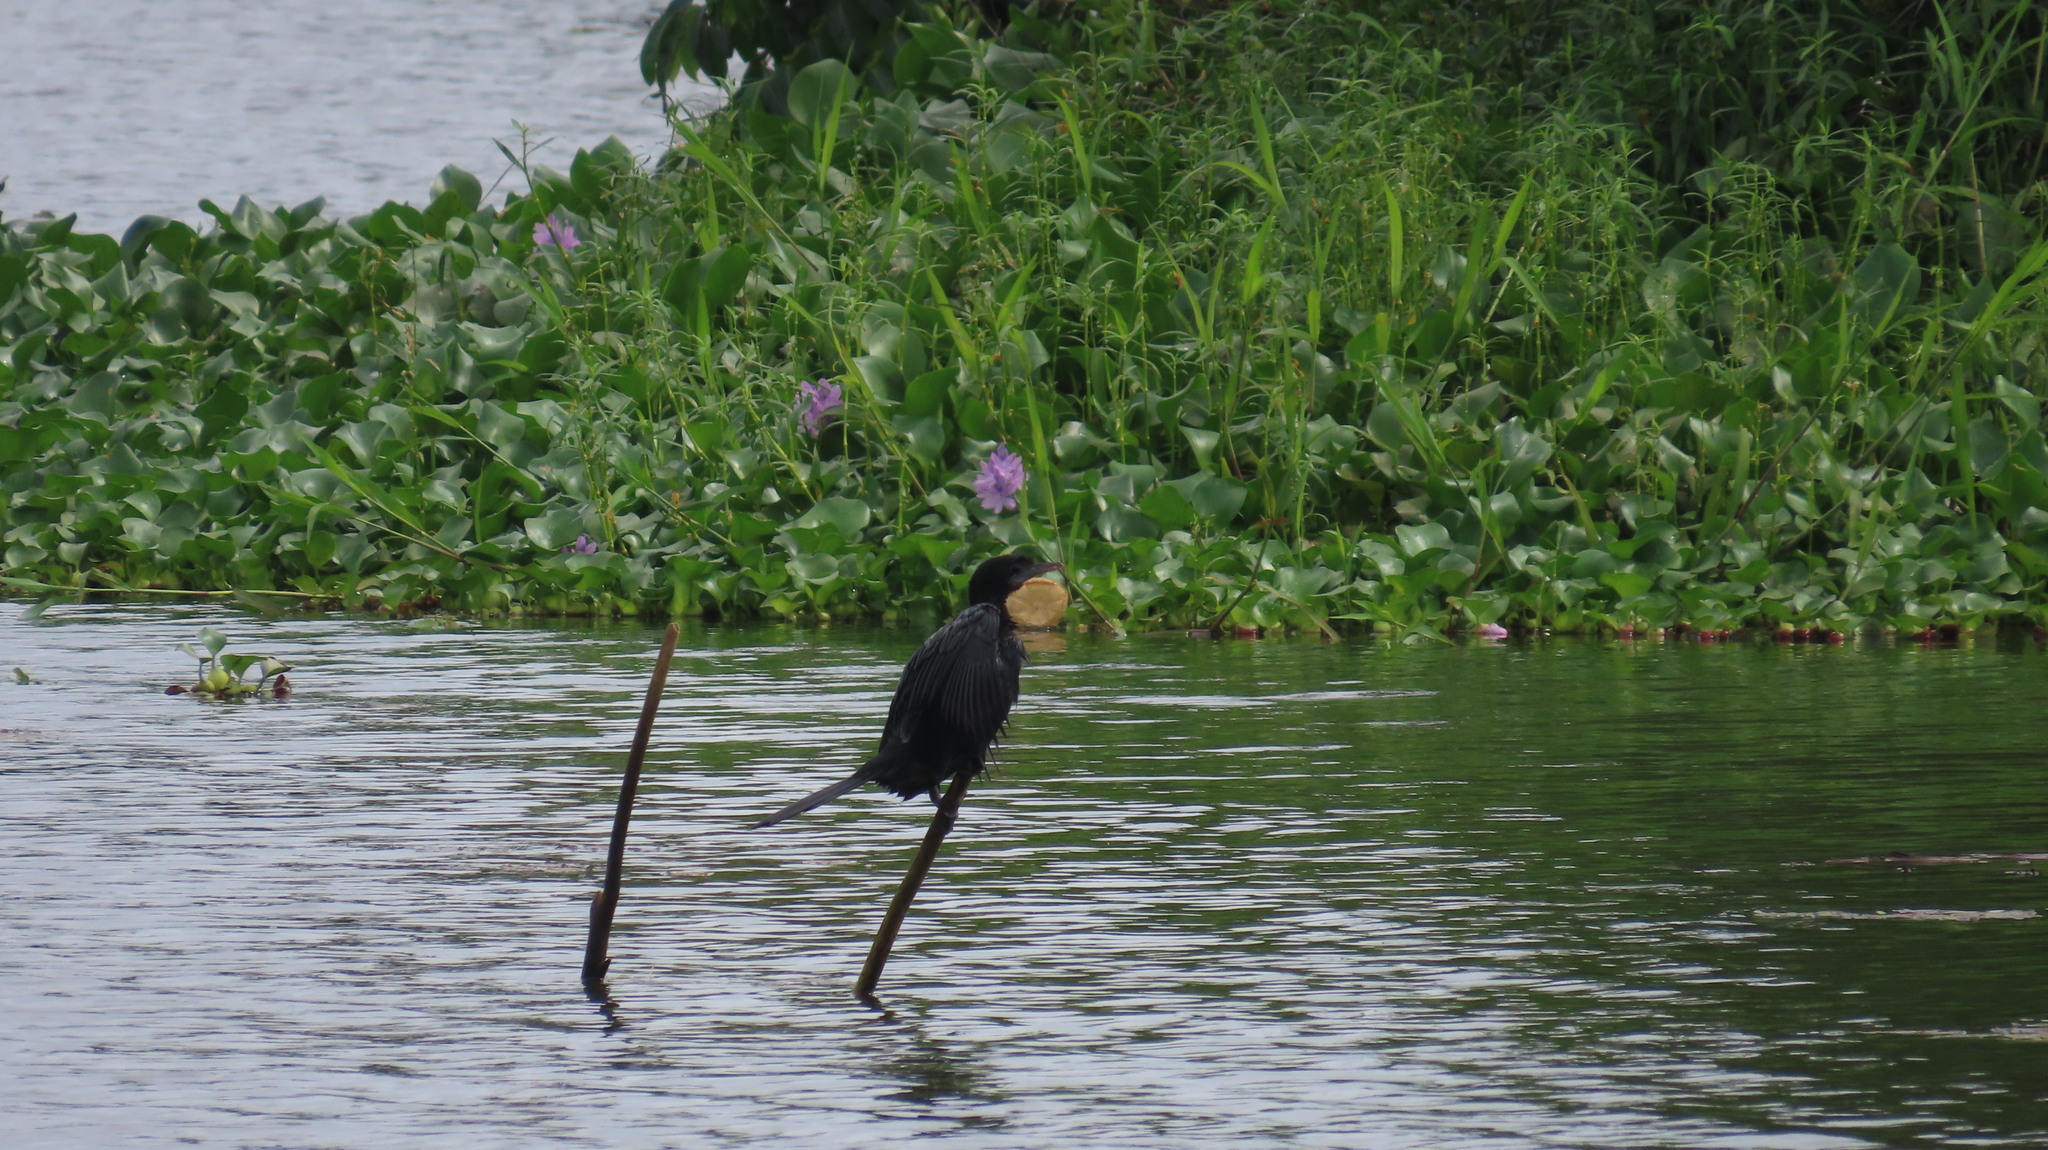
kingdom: Animalia
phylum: Chordata
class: Aves
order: Suliformes
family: Phalacrocoracidae
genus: Microcarbo
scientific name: Microcarbo niger
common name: Little cormorant
